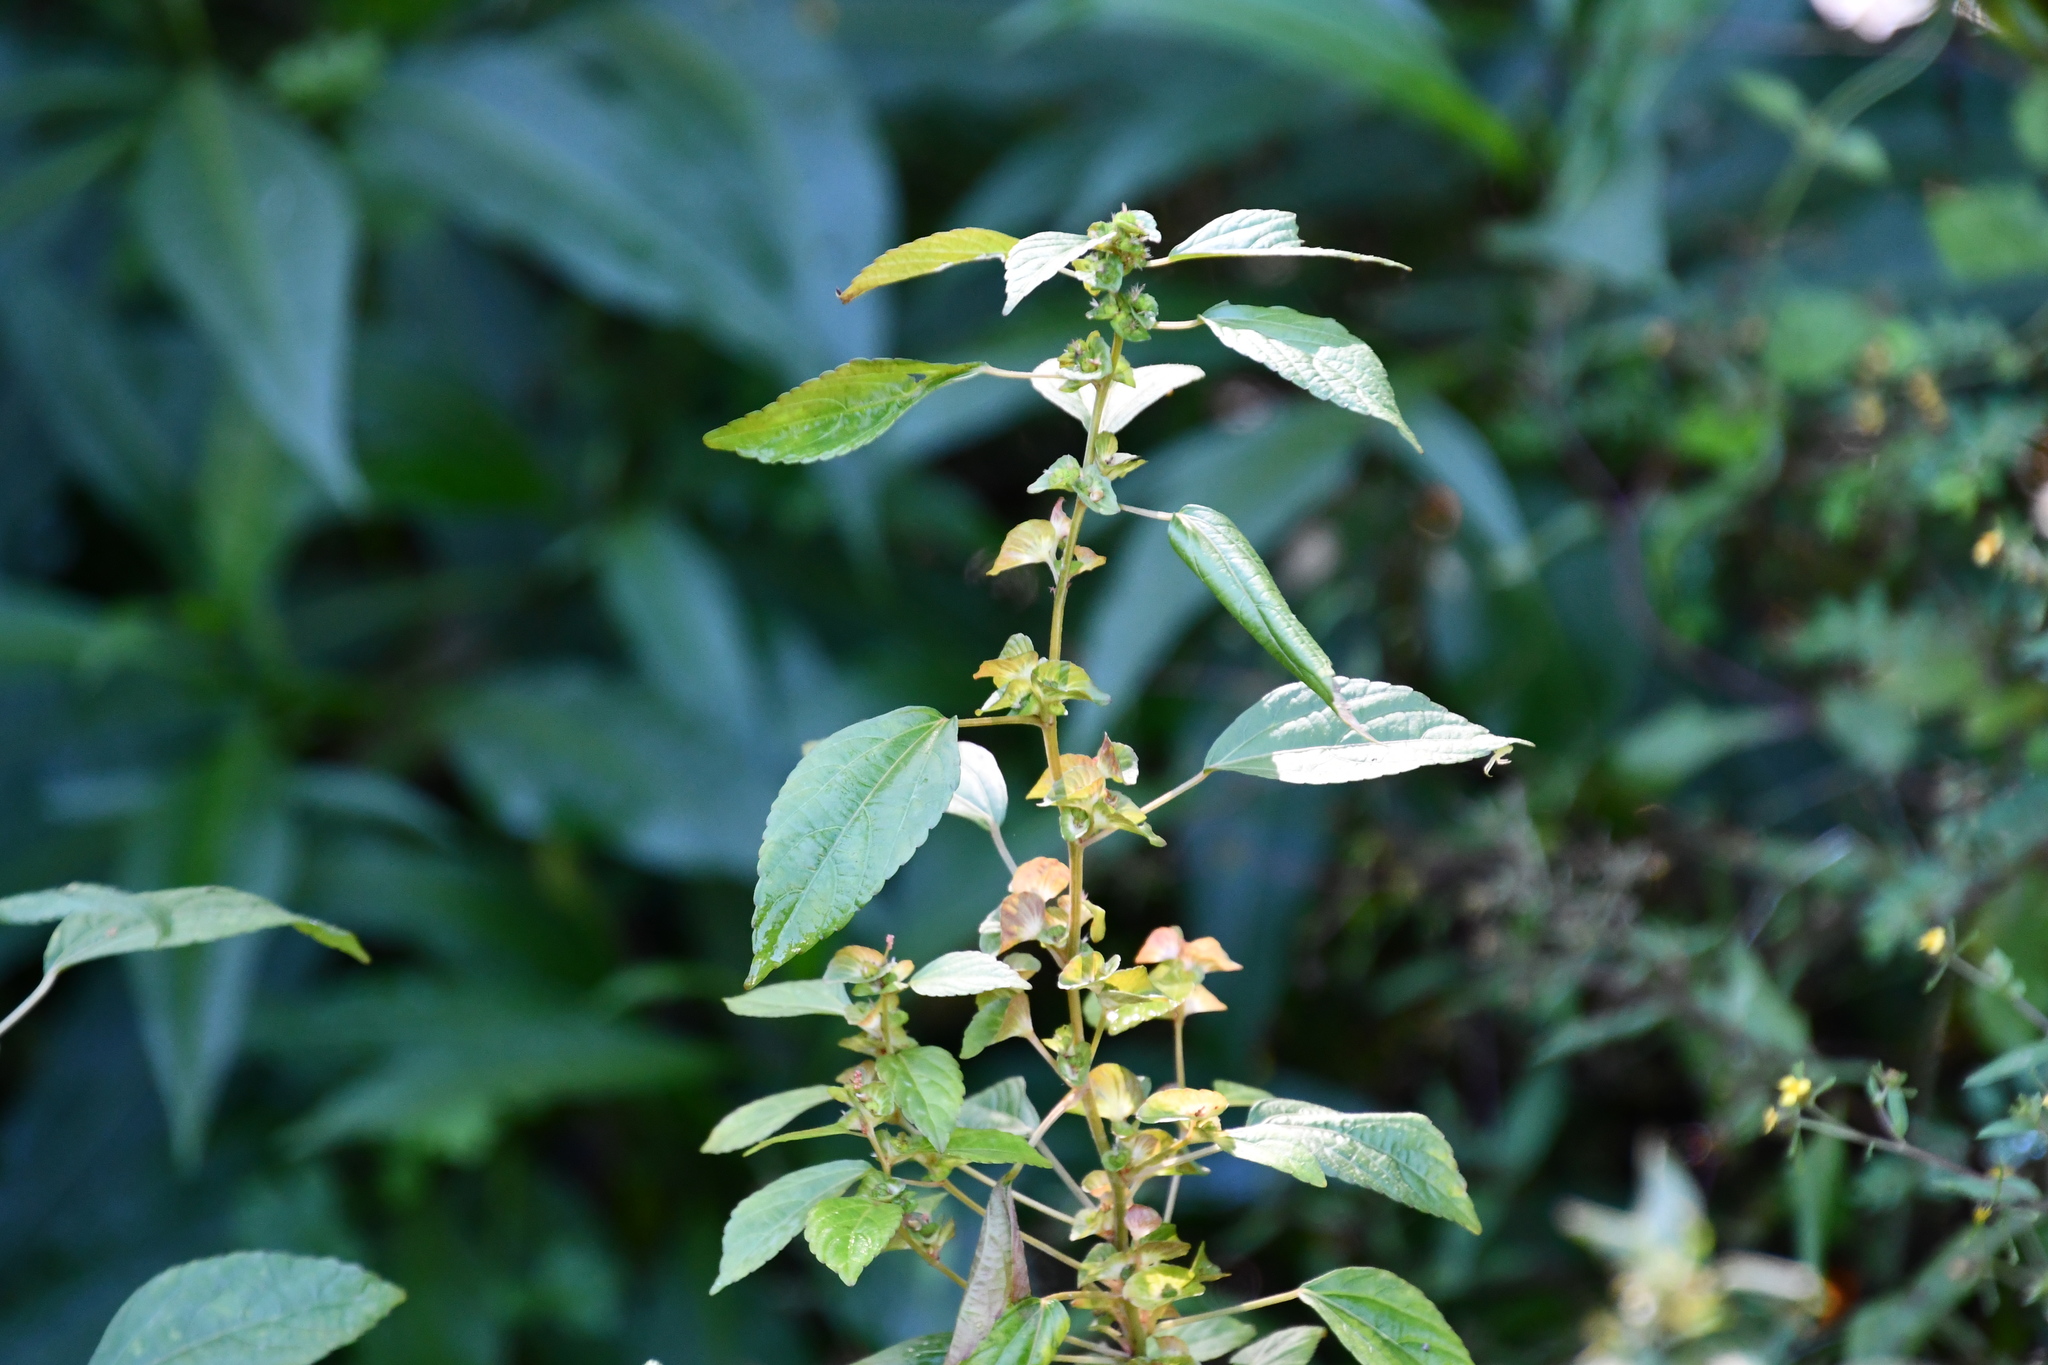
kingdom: Plantae
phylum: Tracheophyta
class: Magnoliopsida
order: Malpighiales
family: Euphorbiaceae
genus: Acalypha
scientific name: Acalypha australis
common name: Asian copperleaf
